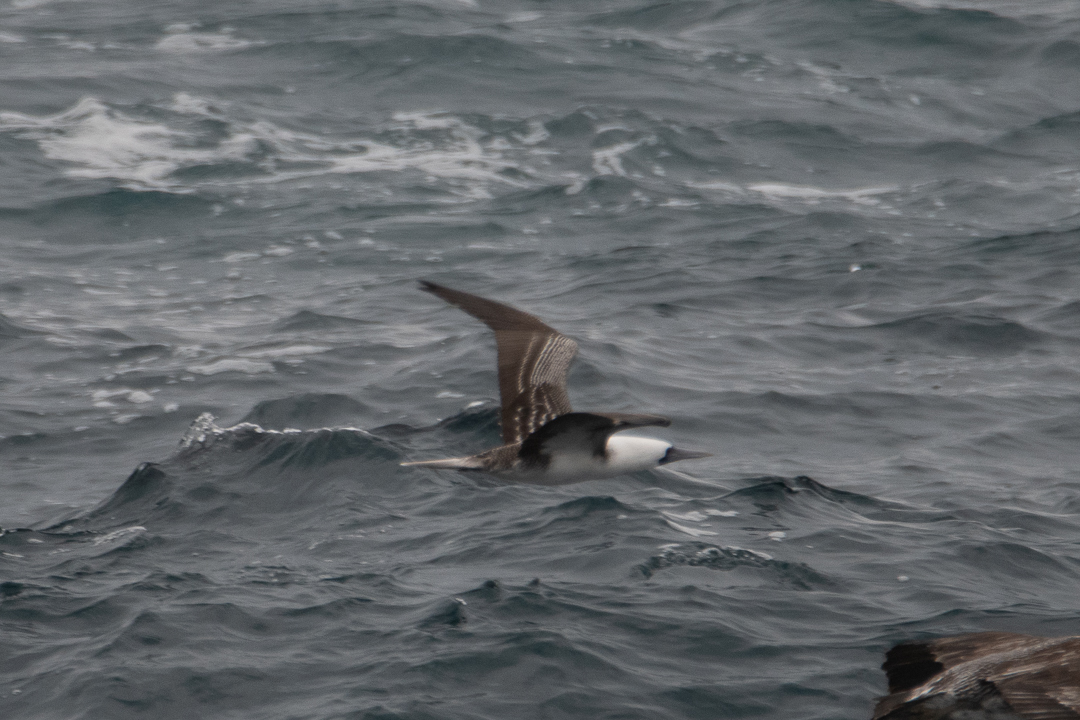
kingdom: Animalia
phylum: Chordata
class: Aves
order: Suliformes
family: Sulidae
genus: Sula
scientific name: Sula variegata
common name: Peruvian booby
